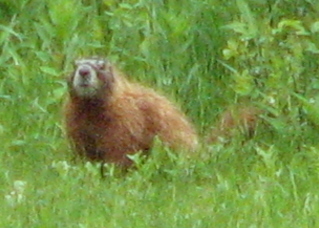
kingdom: Animalia
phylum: Chordata
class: Mammalia
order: Rodentia
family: Sciuridae
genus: Marmota
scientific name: Marmota flaviventris
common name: Yellow-bellied marmot
